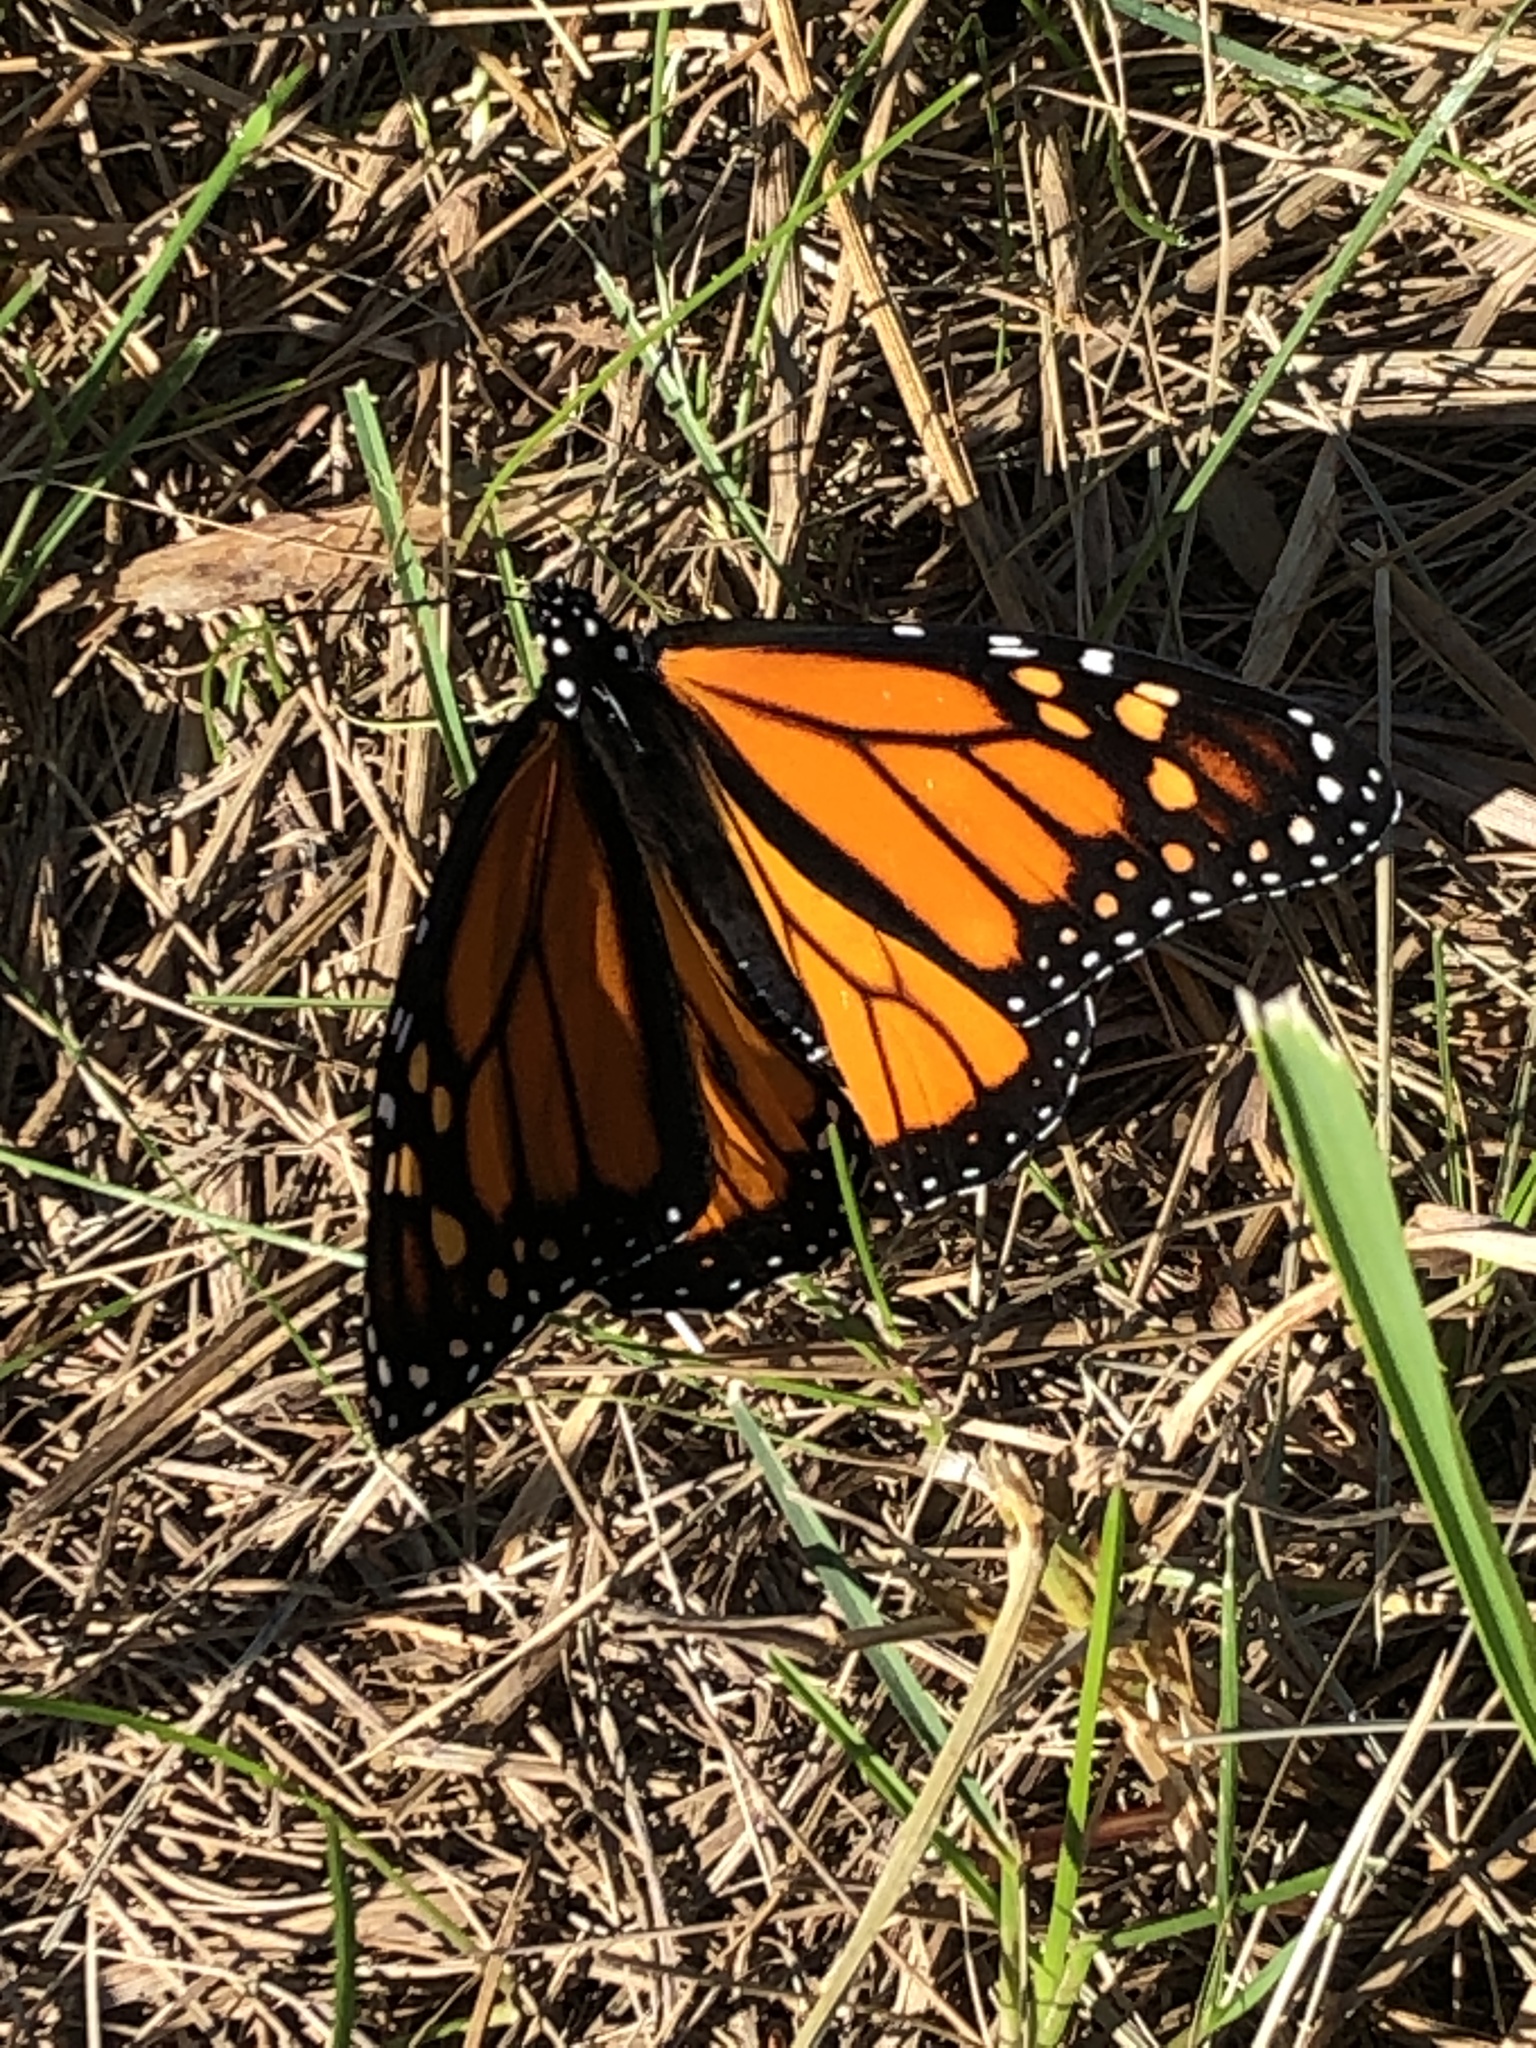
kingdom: Animalia
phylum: Arthropoda
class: Insecta
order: Lepidoptera
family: Nymphalidae
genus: Danaus
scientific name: Danaus plexippus
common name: Monarch
